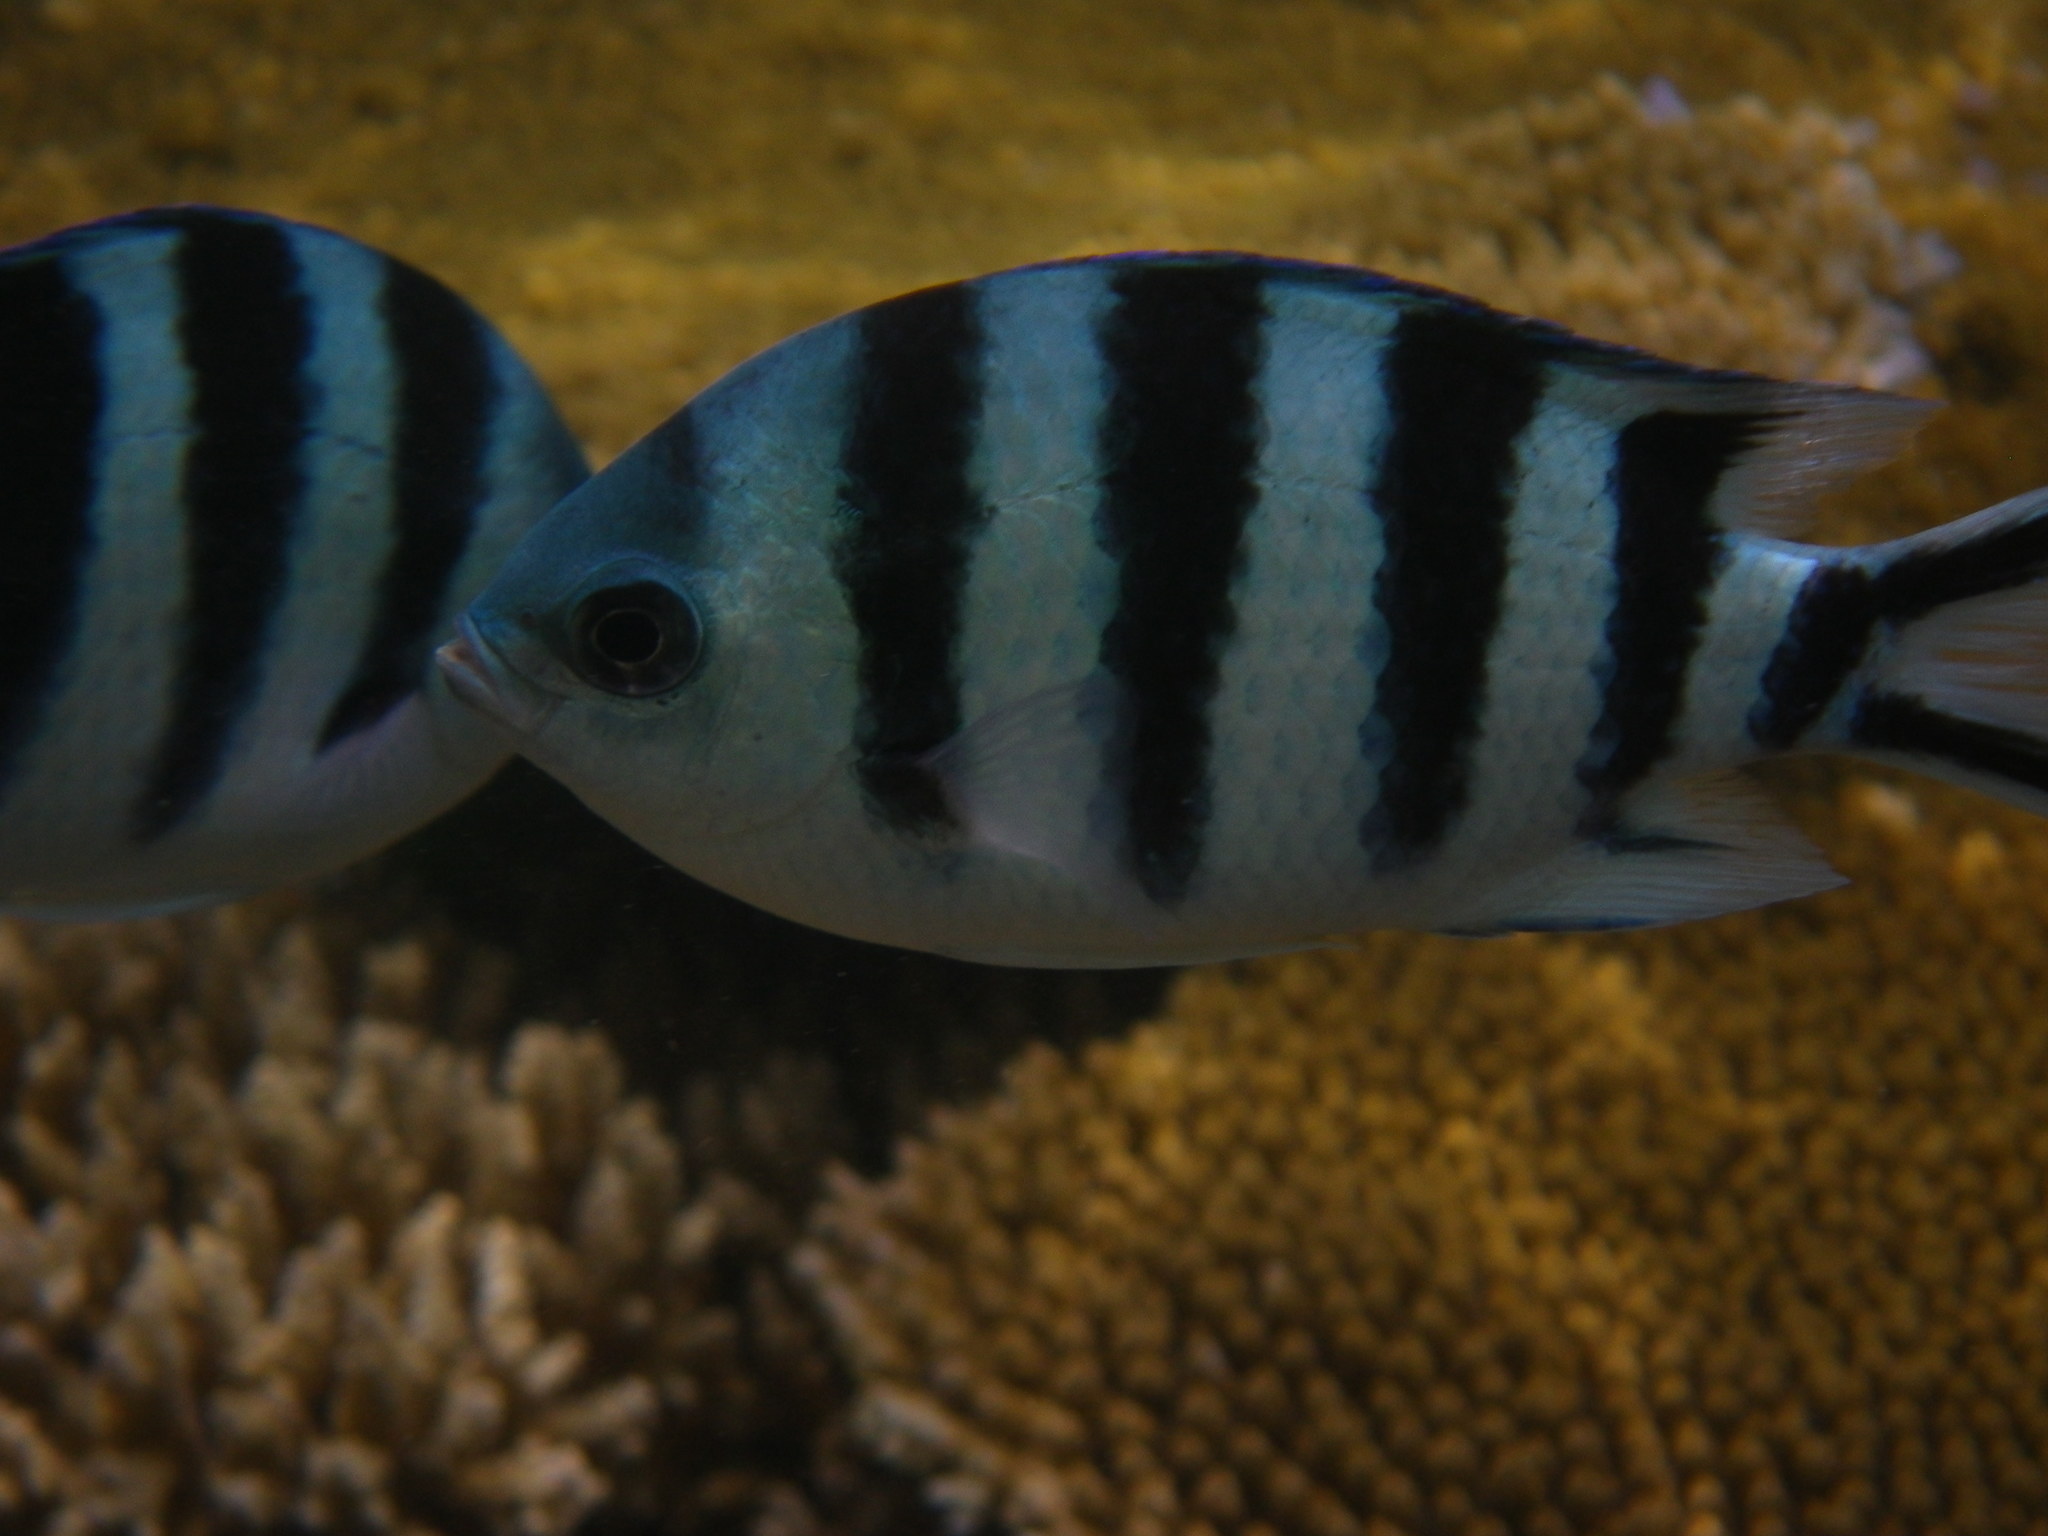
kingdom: Animalia
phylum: Chordata
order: Perciformes
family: Pomacentridae
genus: Abudefduf
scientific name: Abudefduf sexfasciatus
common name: Scissortail sergeant
